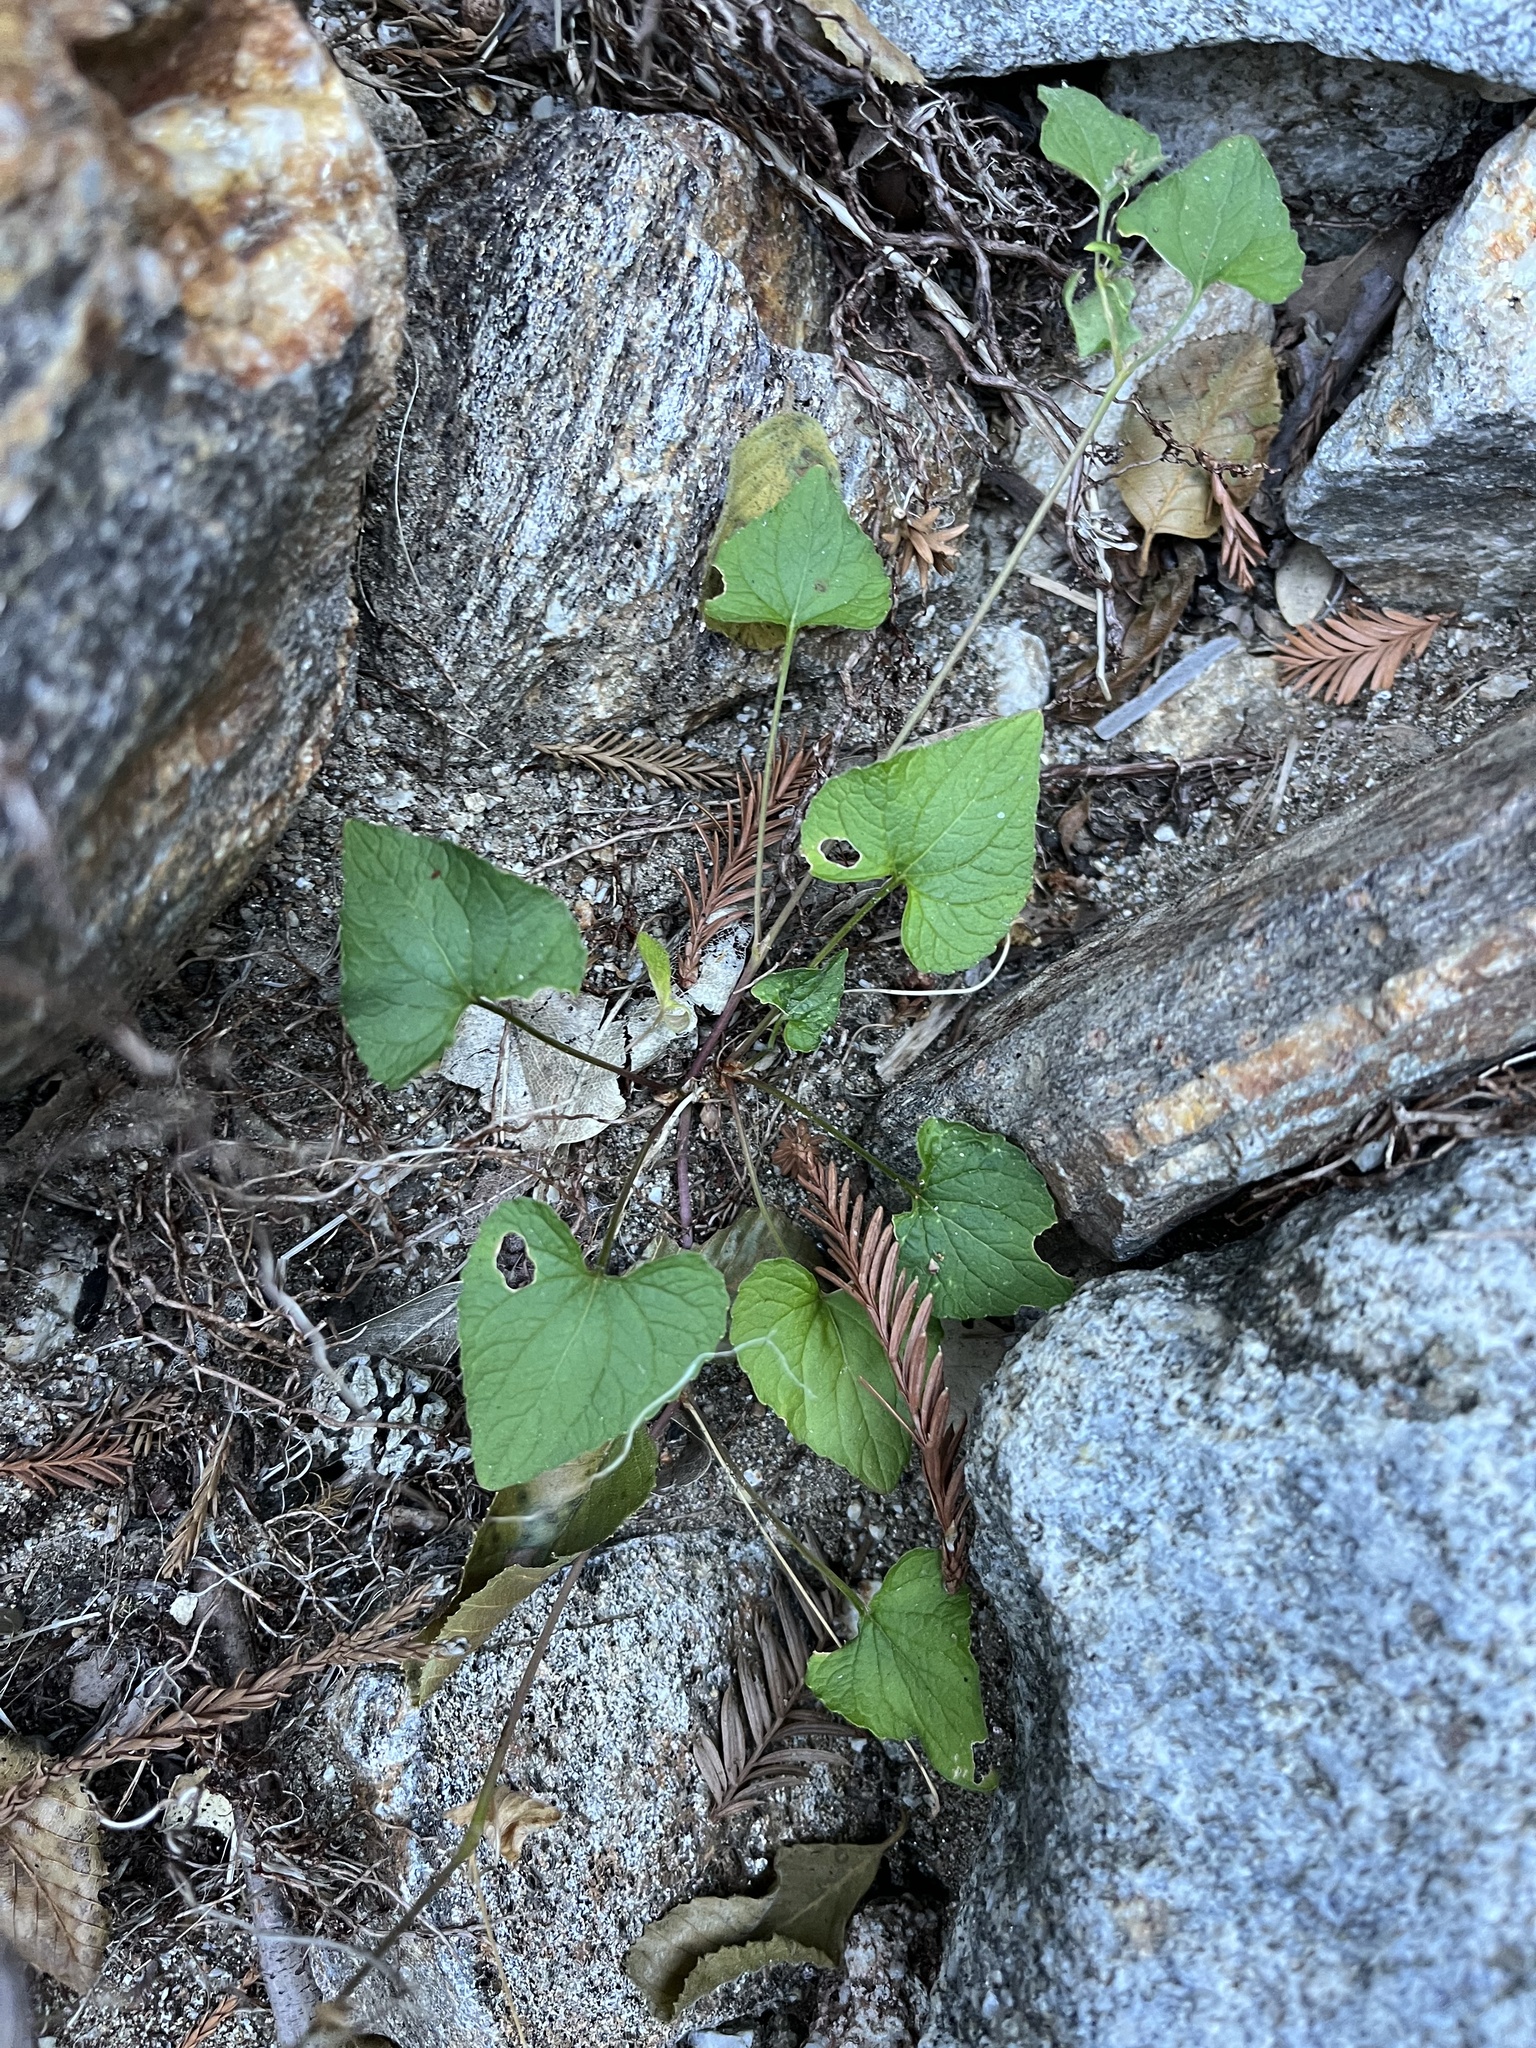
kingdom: Plantae
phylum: Tracheophyta
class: Magnoliopsida
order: Malpighiales
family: Violaceae
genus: Viola
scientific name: Viola ocellata
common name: Western heart's ease
